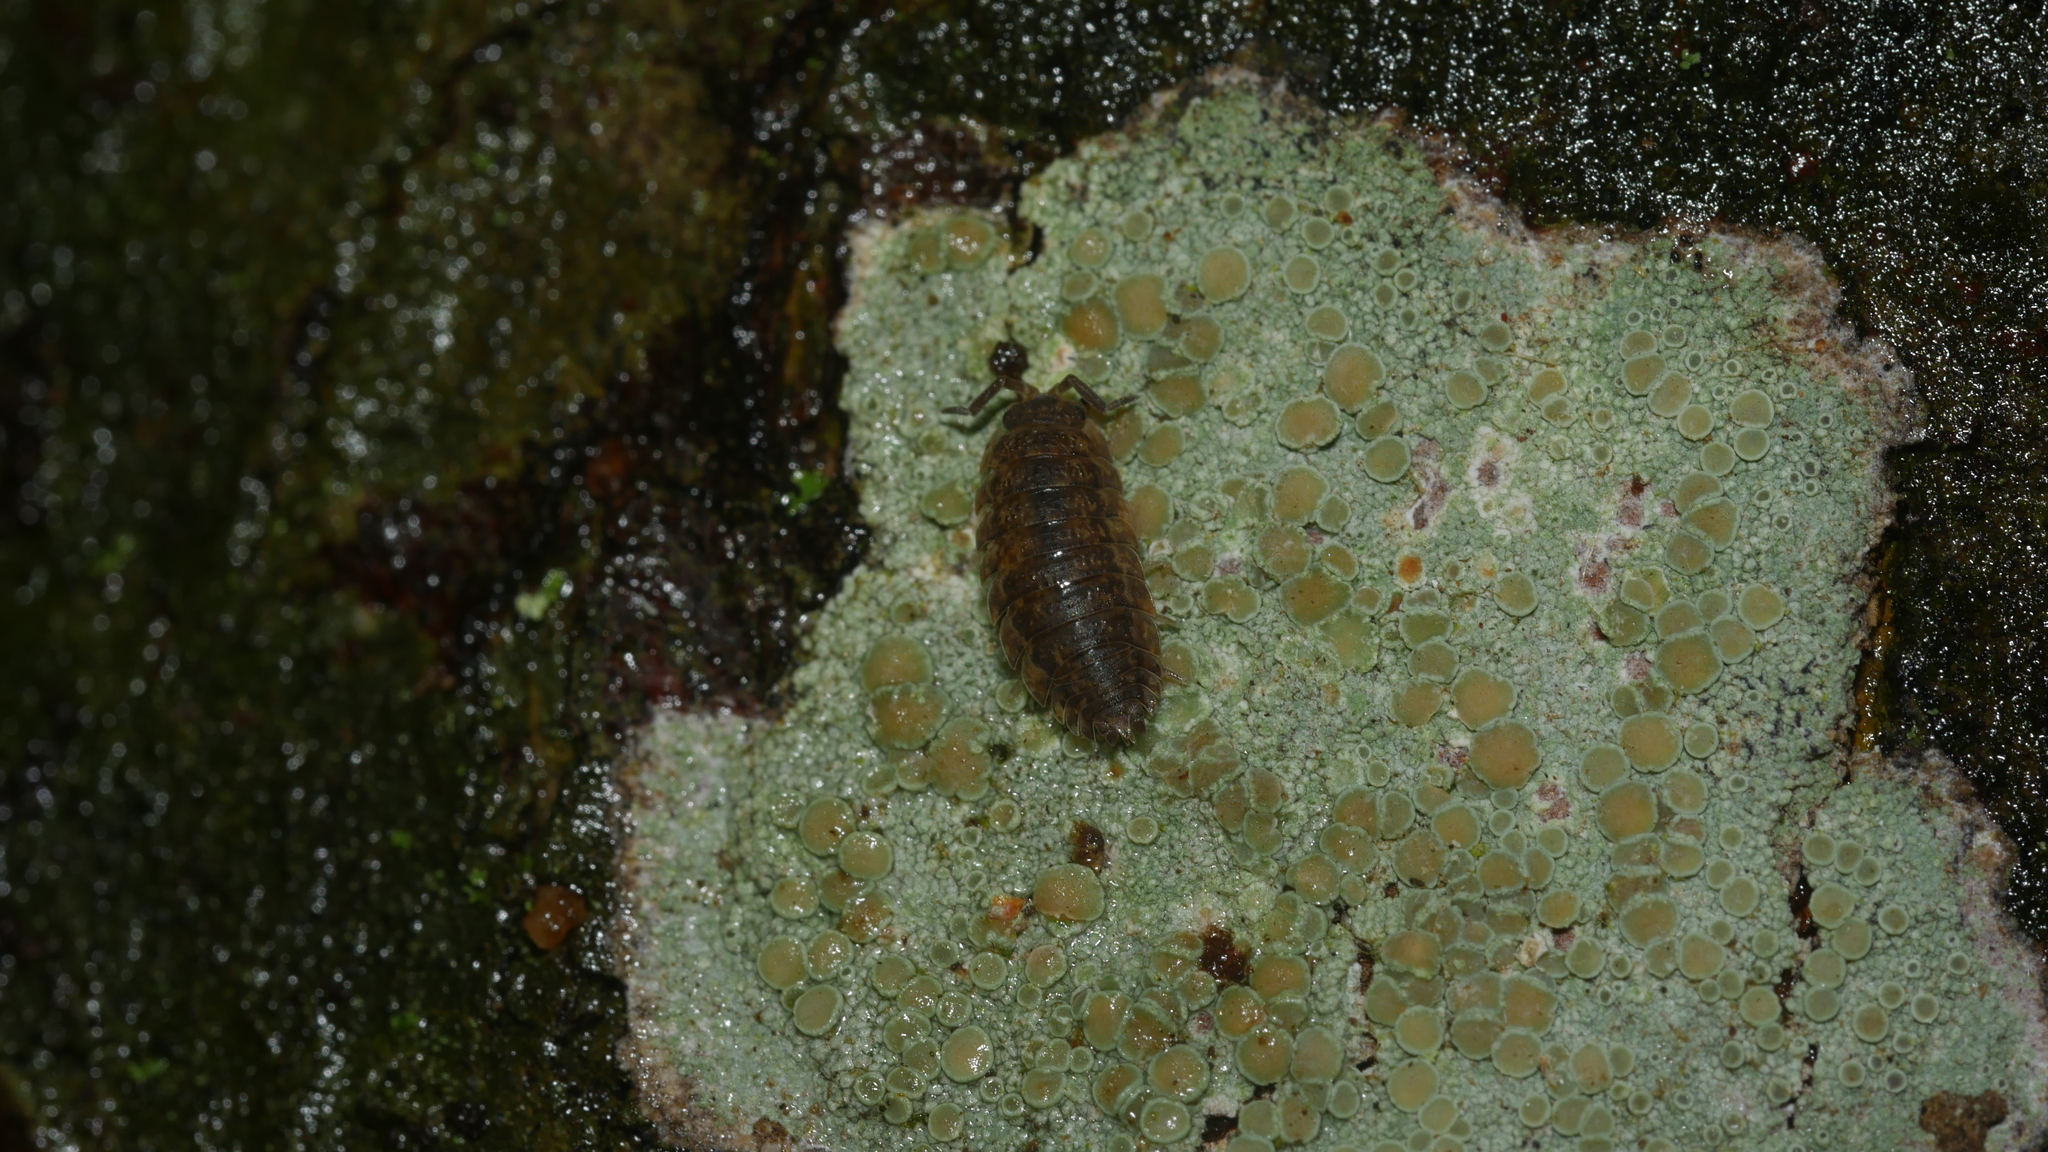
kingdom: Animalia
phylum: Arthropoda
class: Malacostraca
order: Isopoda
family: Porcellionidae
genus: Porcellio
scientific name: Porcellio scaber
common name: Common rough woodlouse
